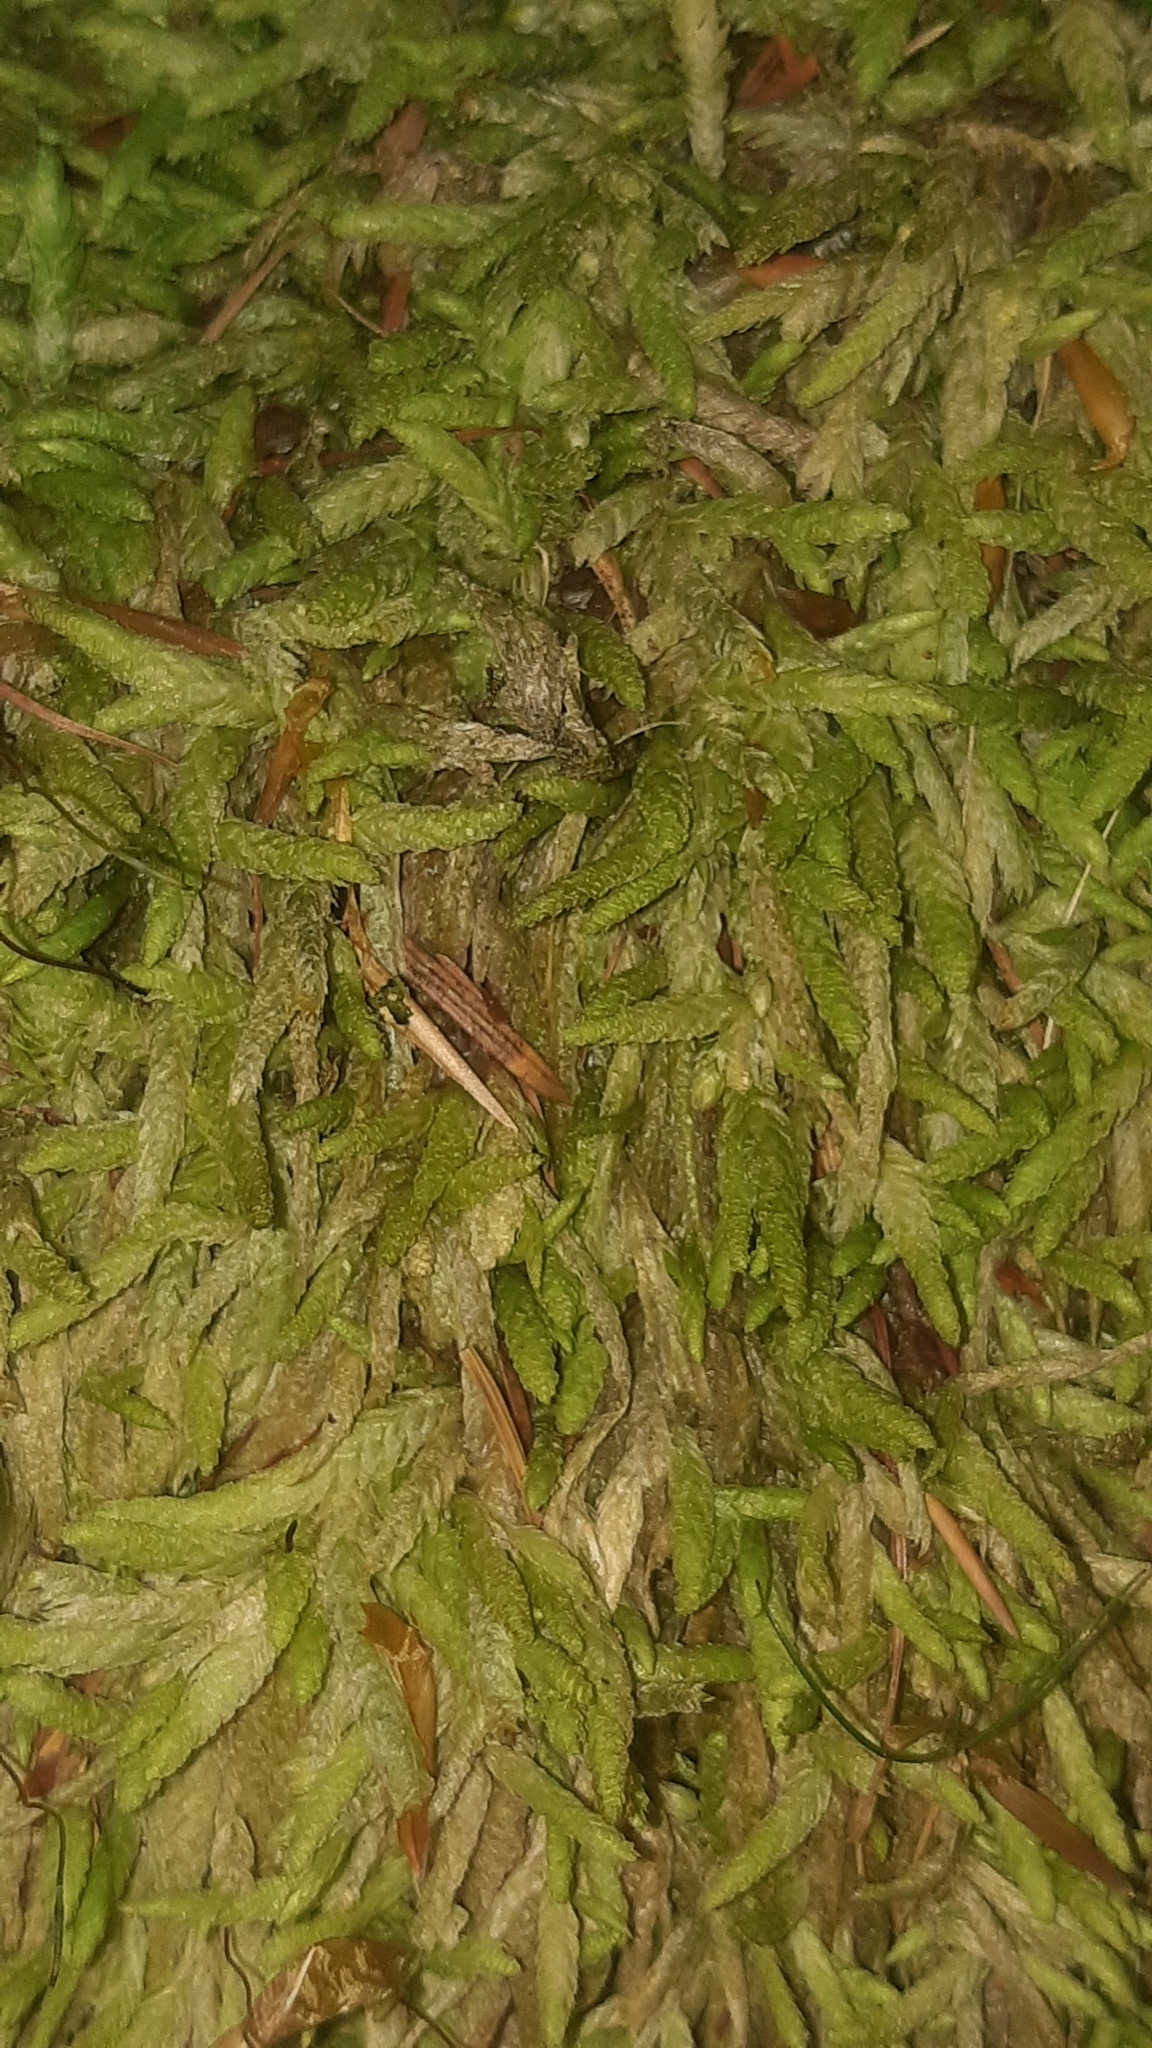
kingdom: Plantae
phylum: Bryophyta
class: Bryopsida
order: Hypnales
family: Plagiotheciaceae
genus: Plagiothecium
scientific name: Plagiothecium undulatum
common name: Waved silk-moss
